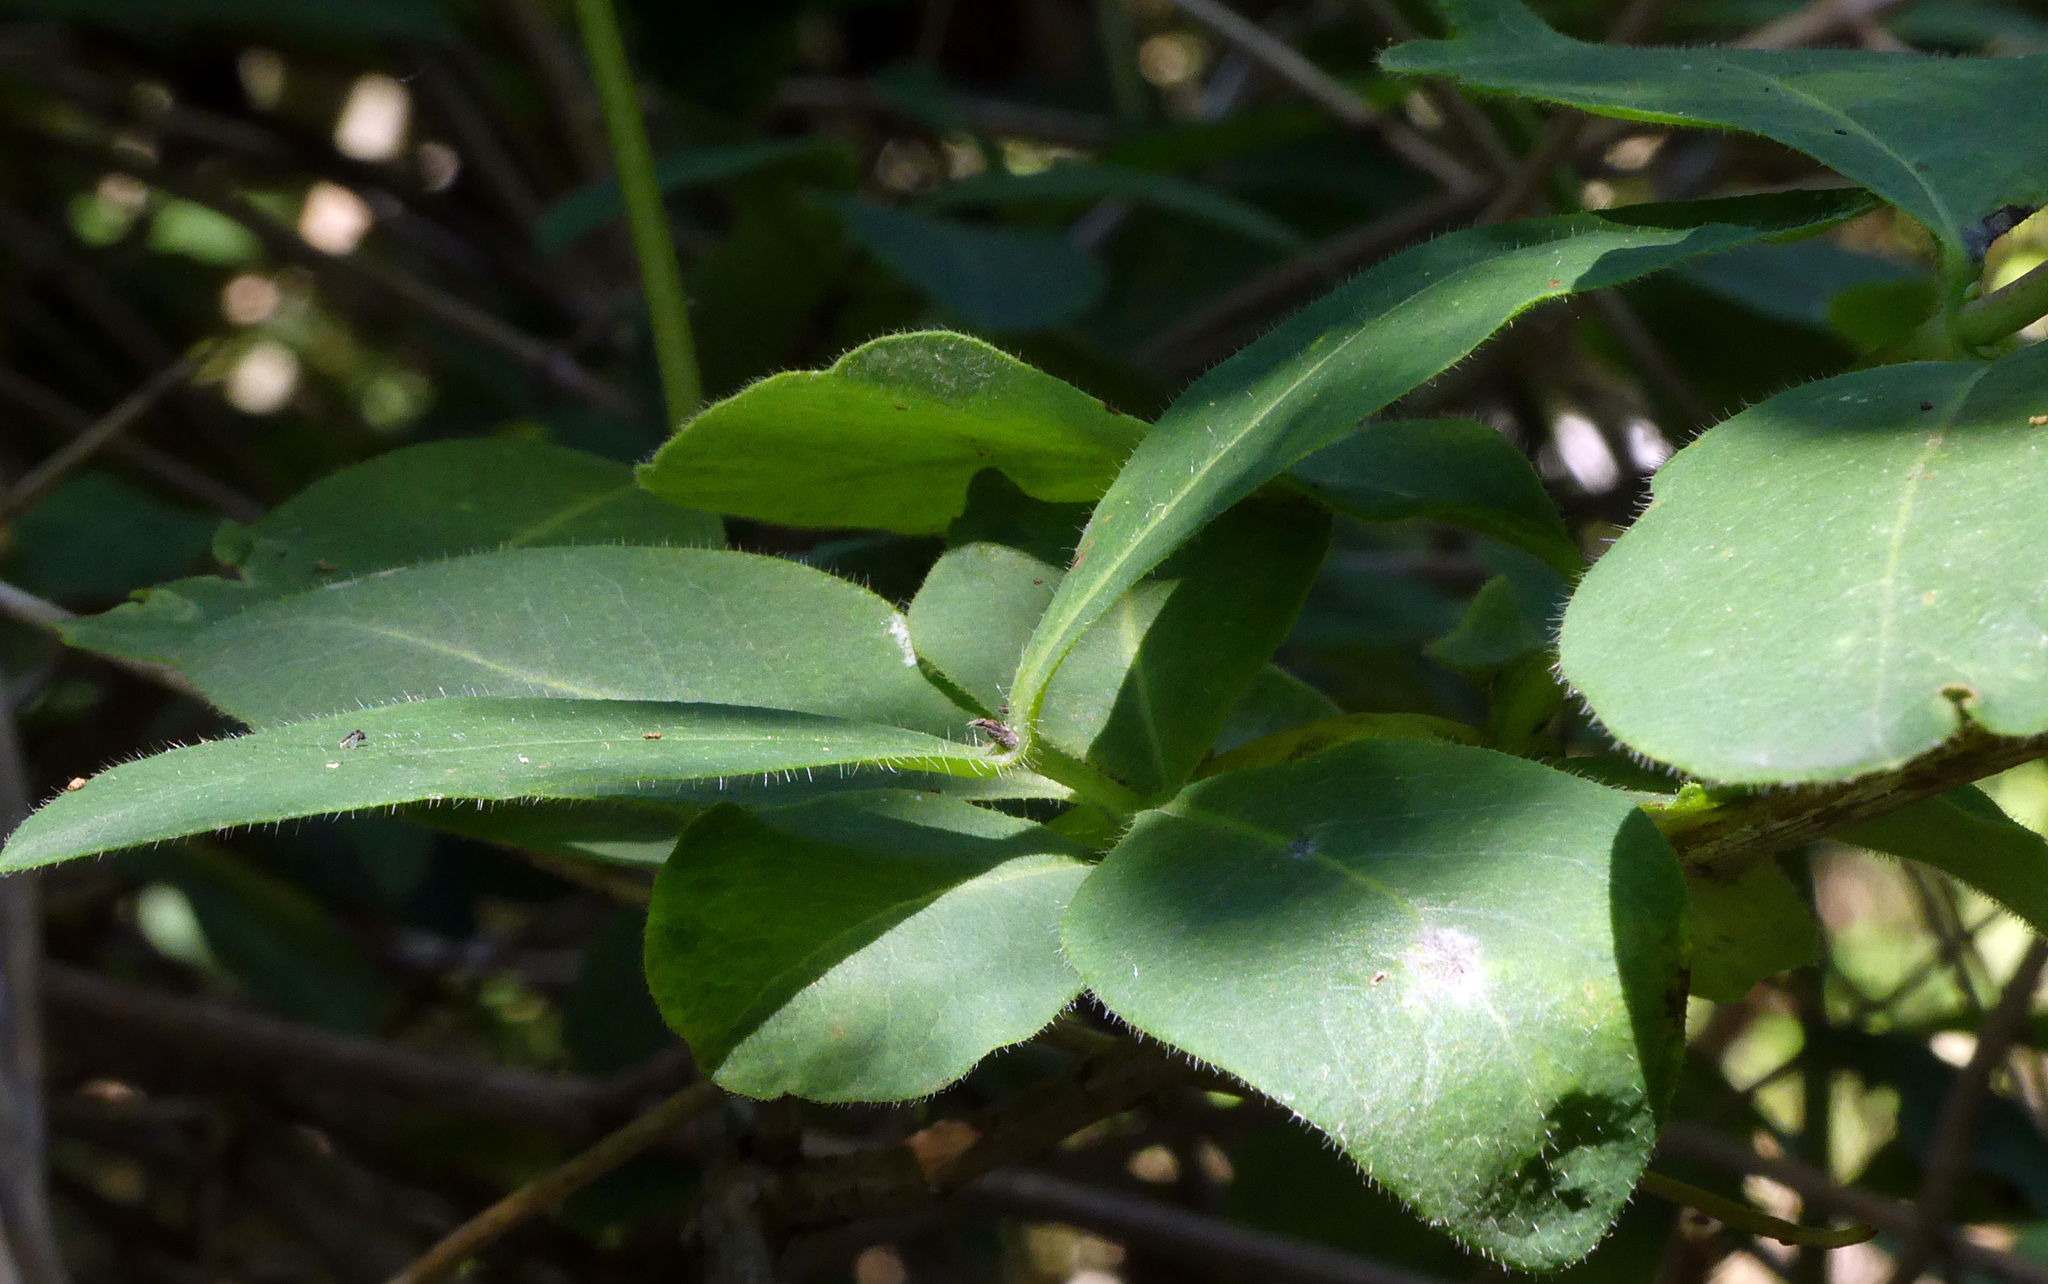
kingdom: Plantae
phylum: Tracheophyta
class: Magnoliopsida
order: Dipsacales
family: Caprifoliaceae
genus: Lonicera
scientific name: Lonicera periclymenum
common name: European honeysuckle
